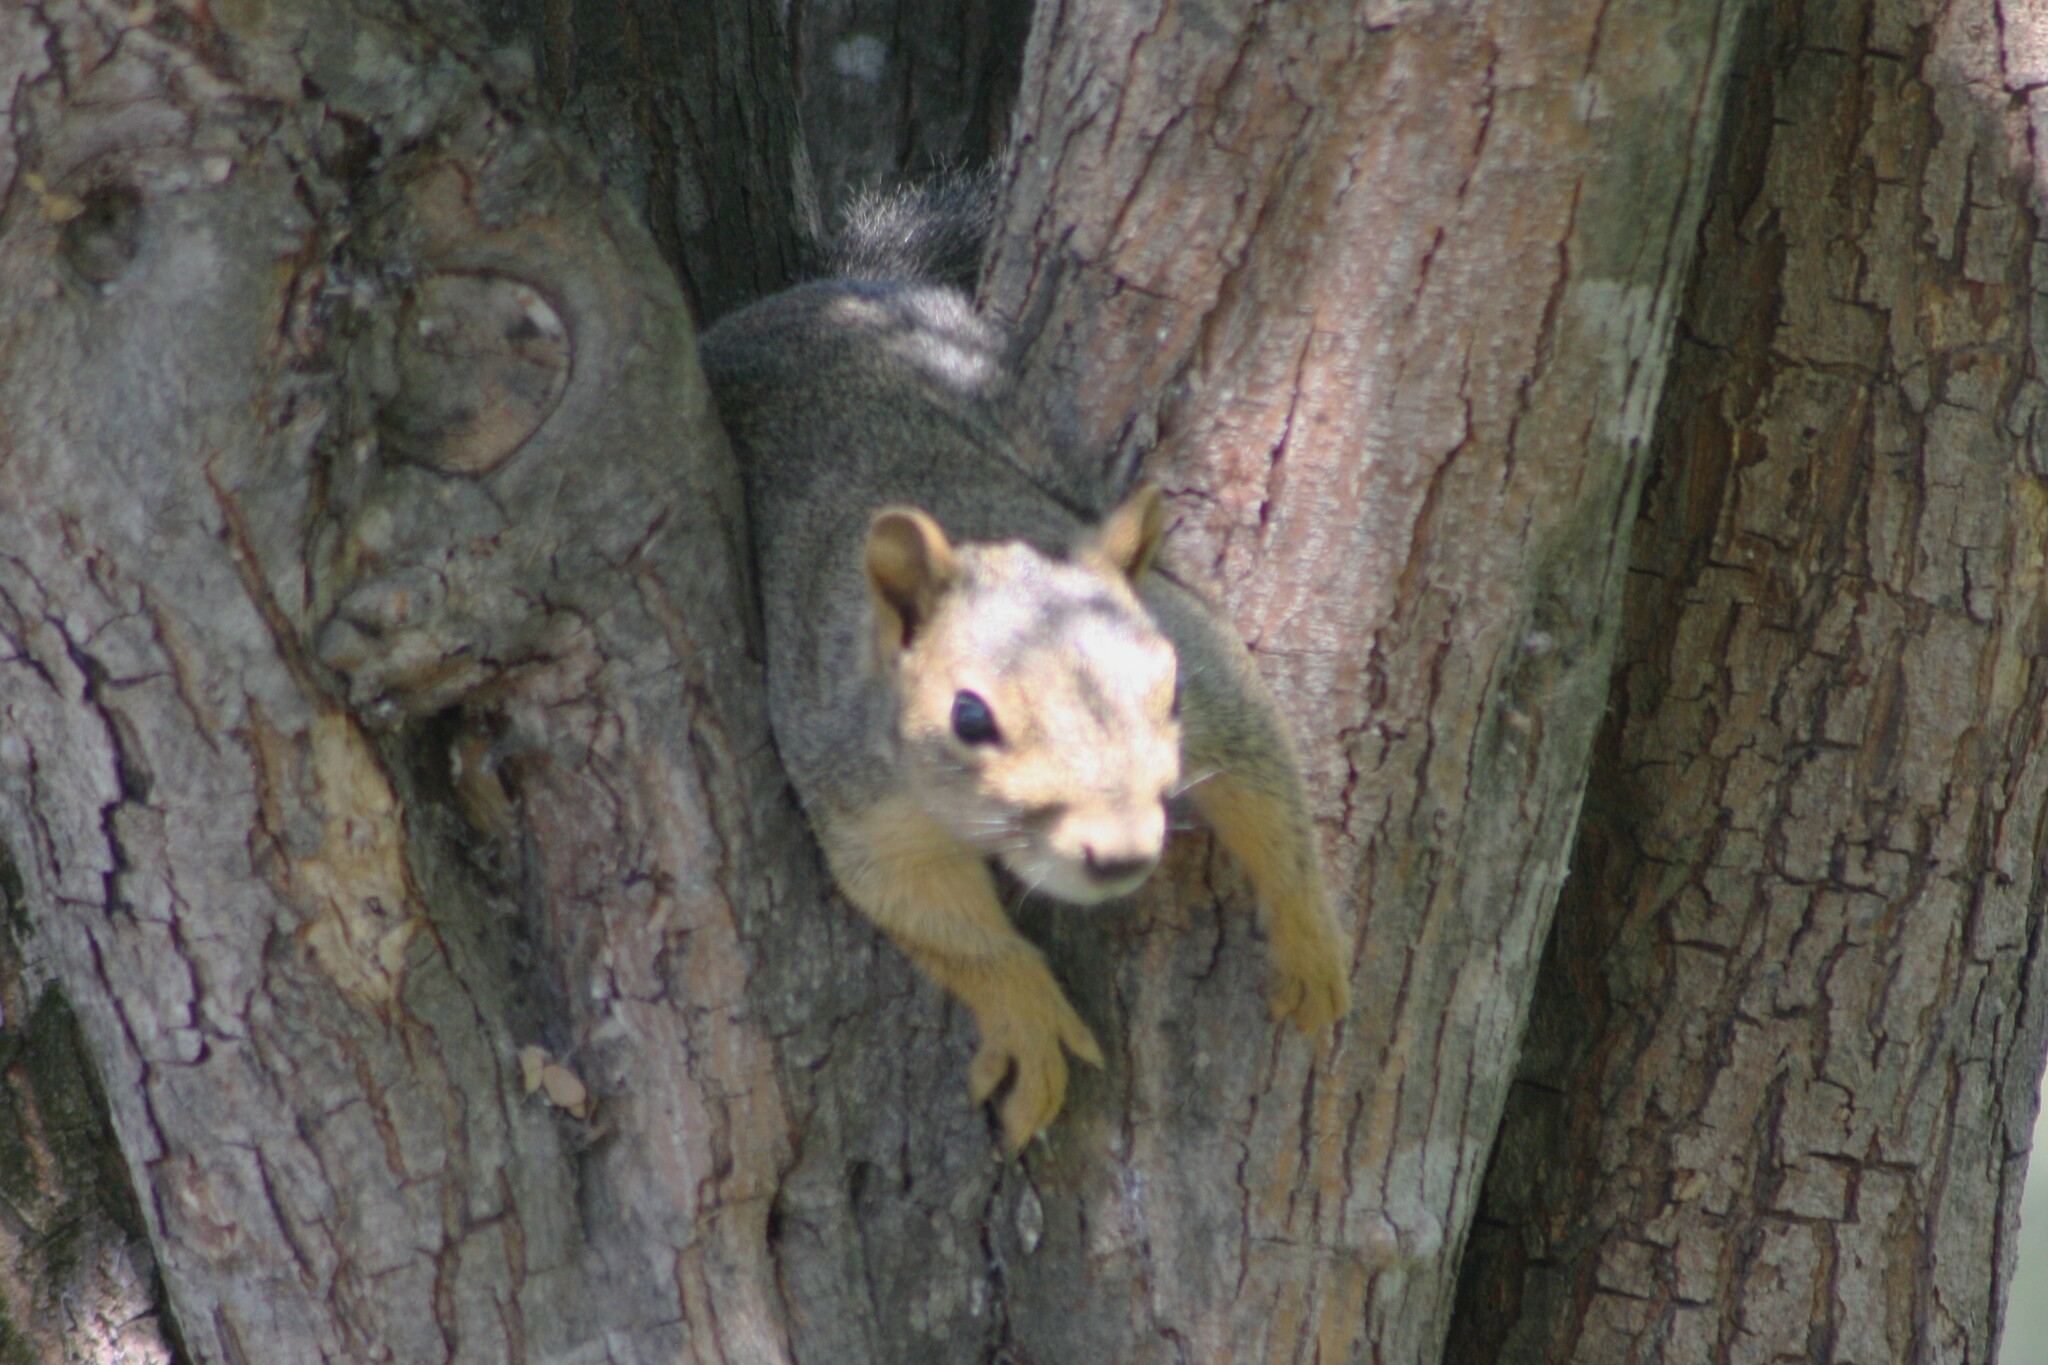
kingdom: Animalia
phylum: Chordata
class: Mammalia
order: Rodentia
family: Sciuridae
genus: Sciurus
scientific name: Sciurus niger
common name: Fox squirrel
